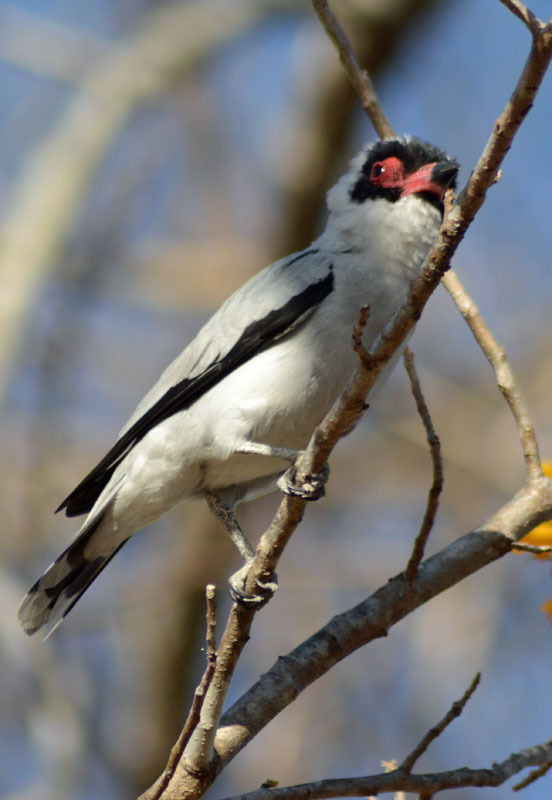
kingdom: Animalia
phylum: Chordata
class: Aves
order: Passeriformes
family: Cotingidae
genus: Tityra
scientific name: Tityra semifasciata
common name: Masked tityra
